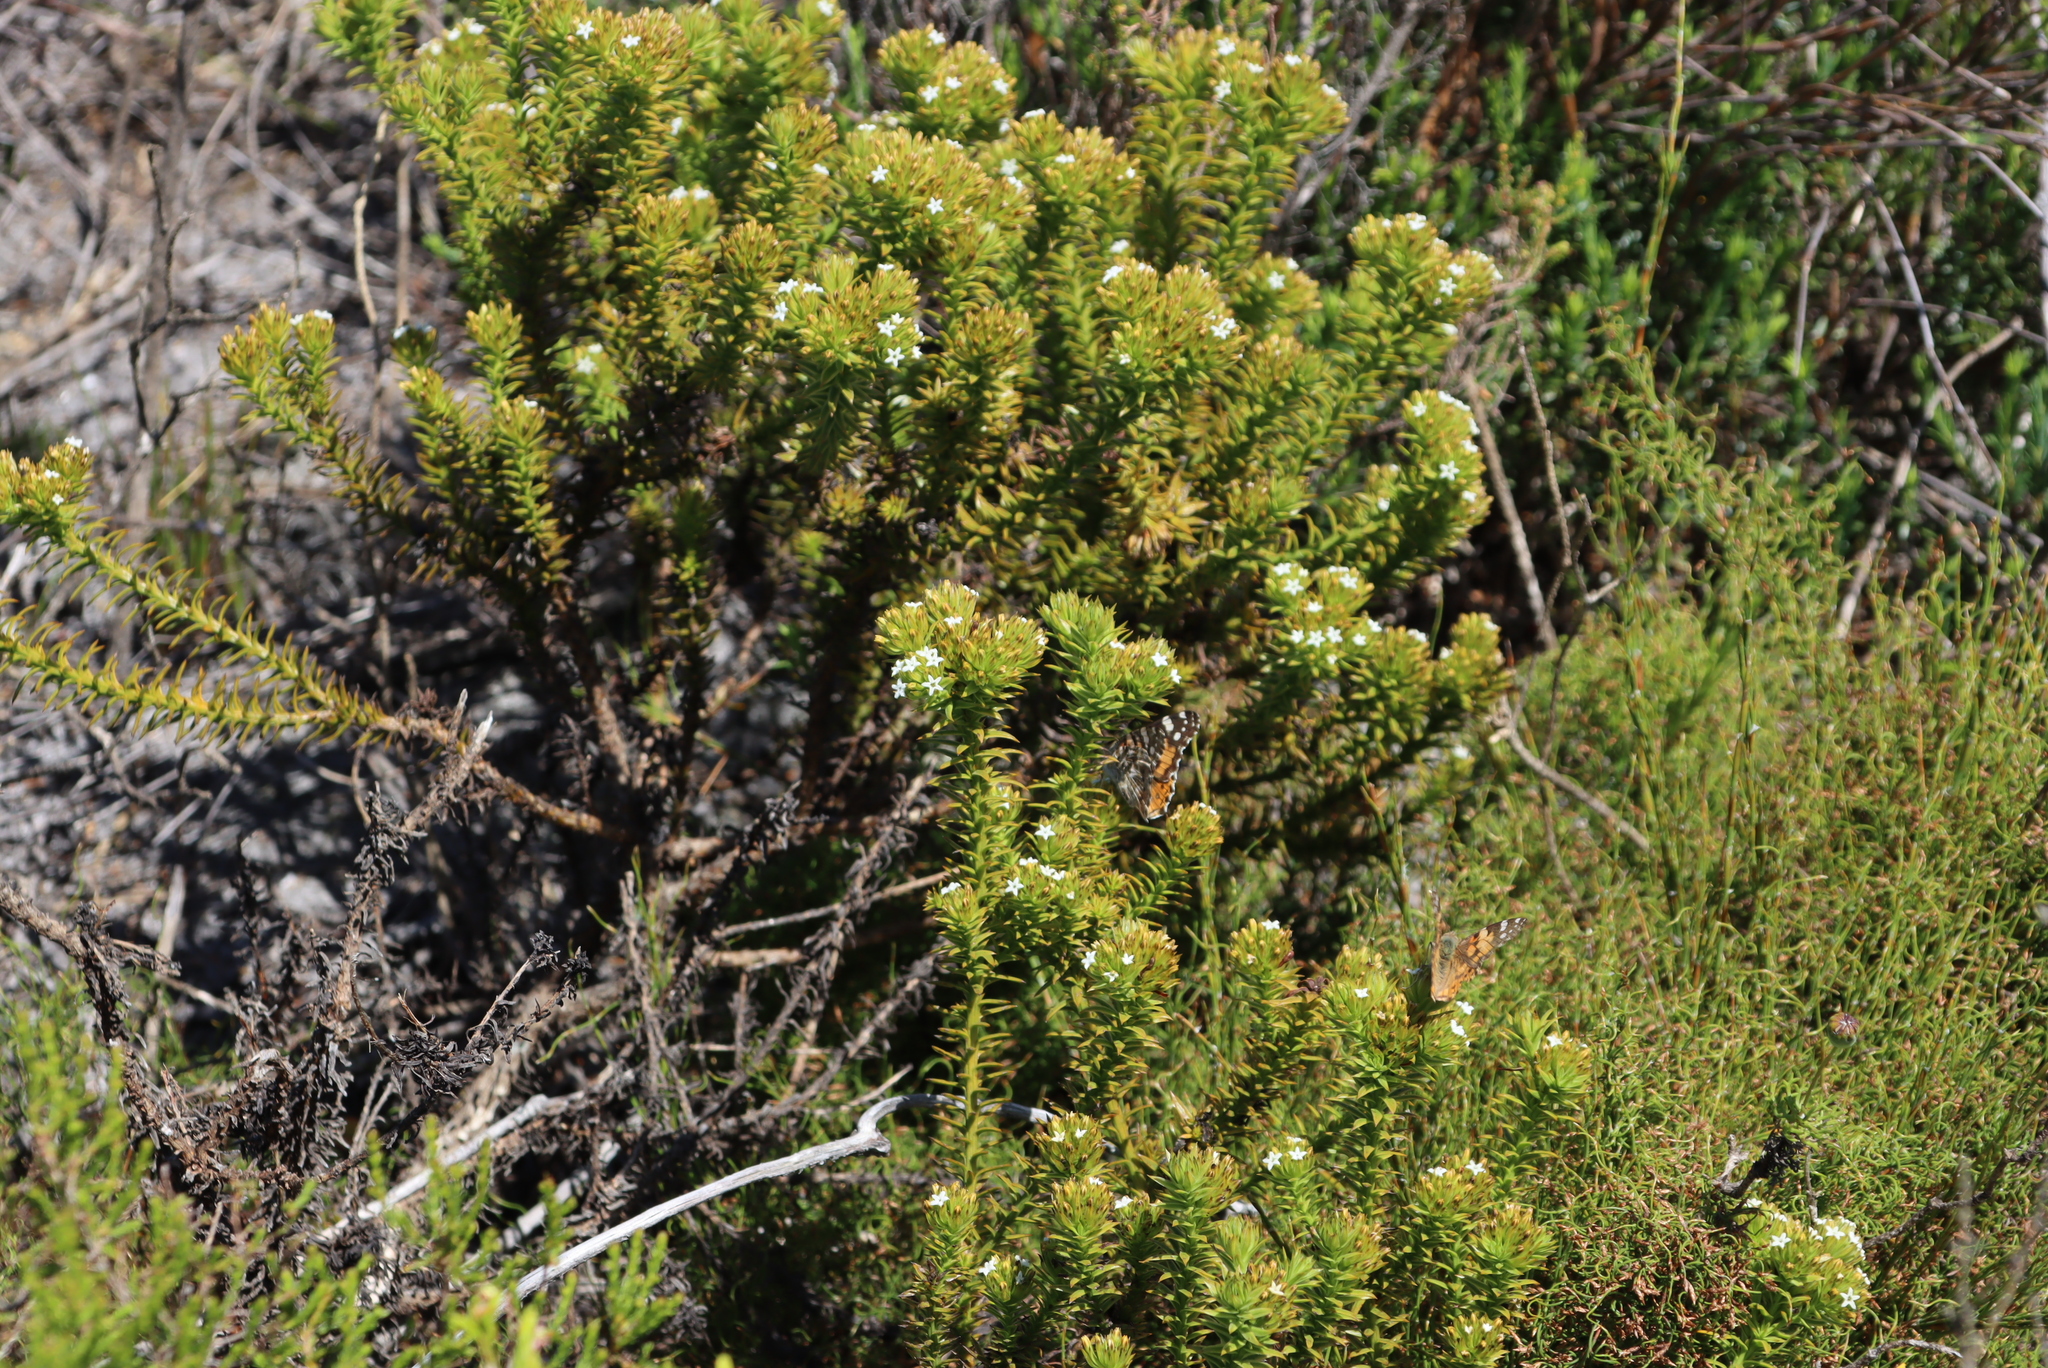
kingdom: Animalia
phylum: Arthropoda
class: Insecta
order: Lepidoptera
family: Nymphalidae
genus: Vanessa
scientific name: Vanessa cardui
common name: Painted lady
